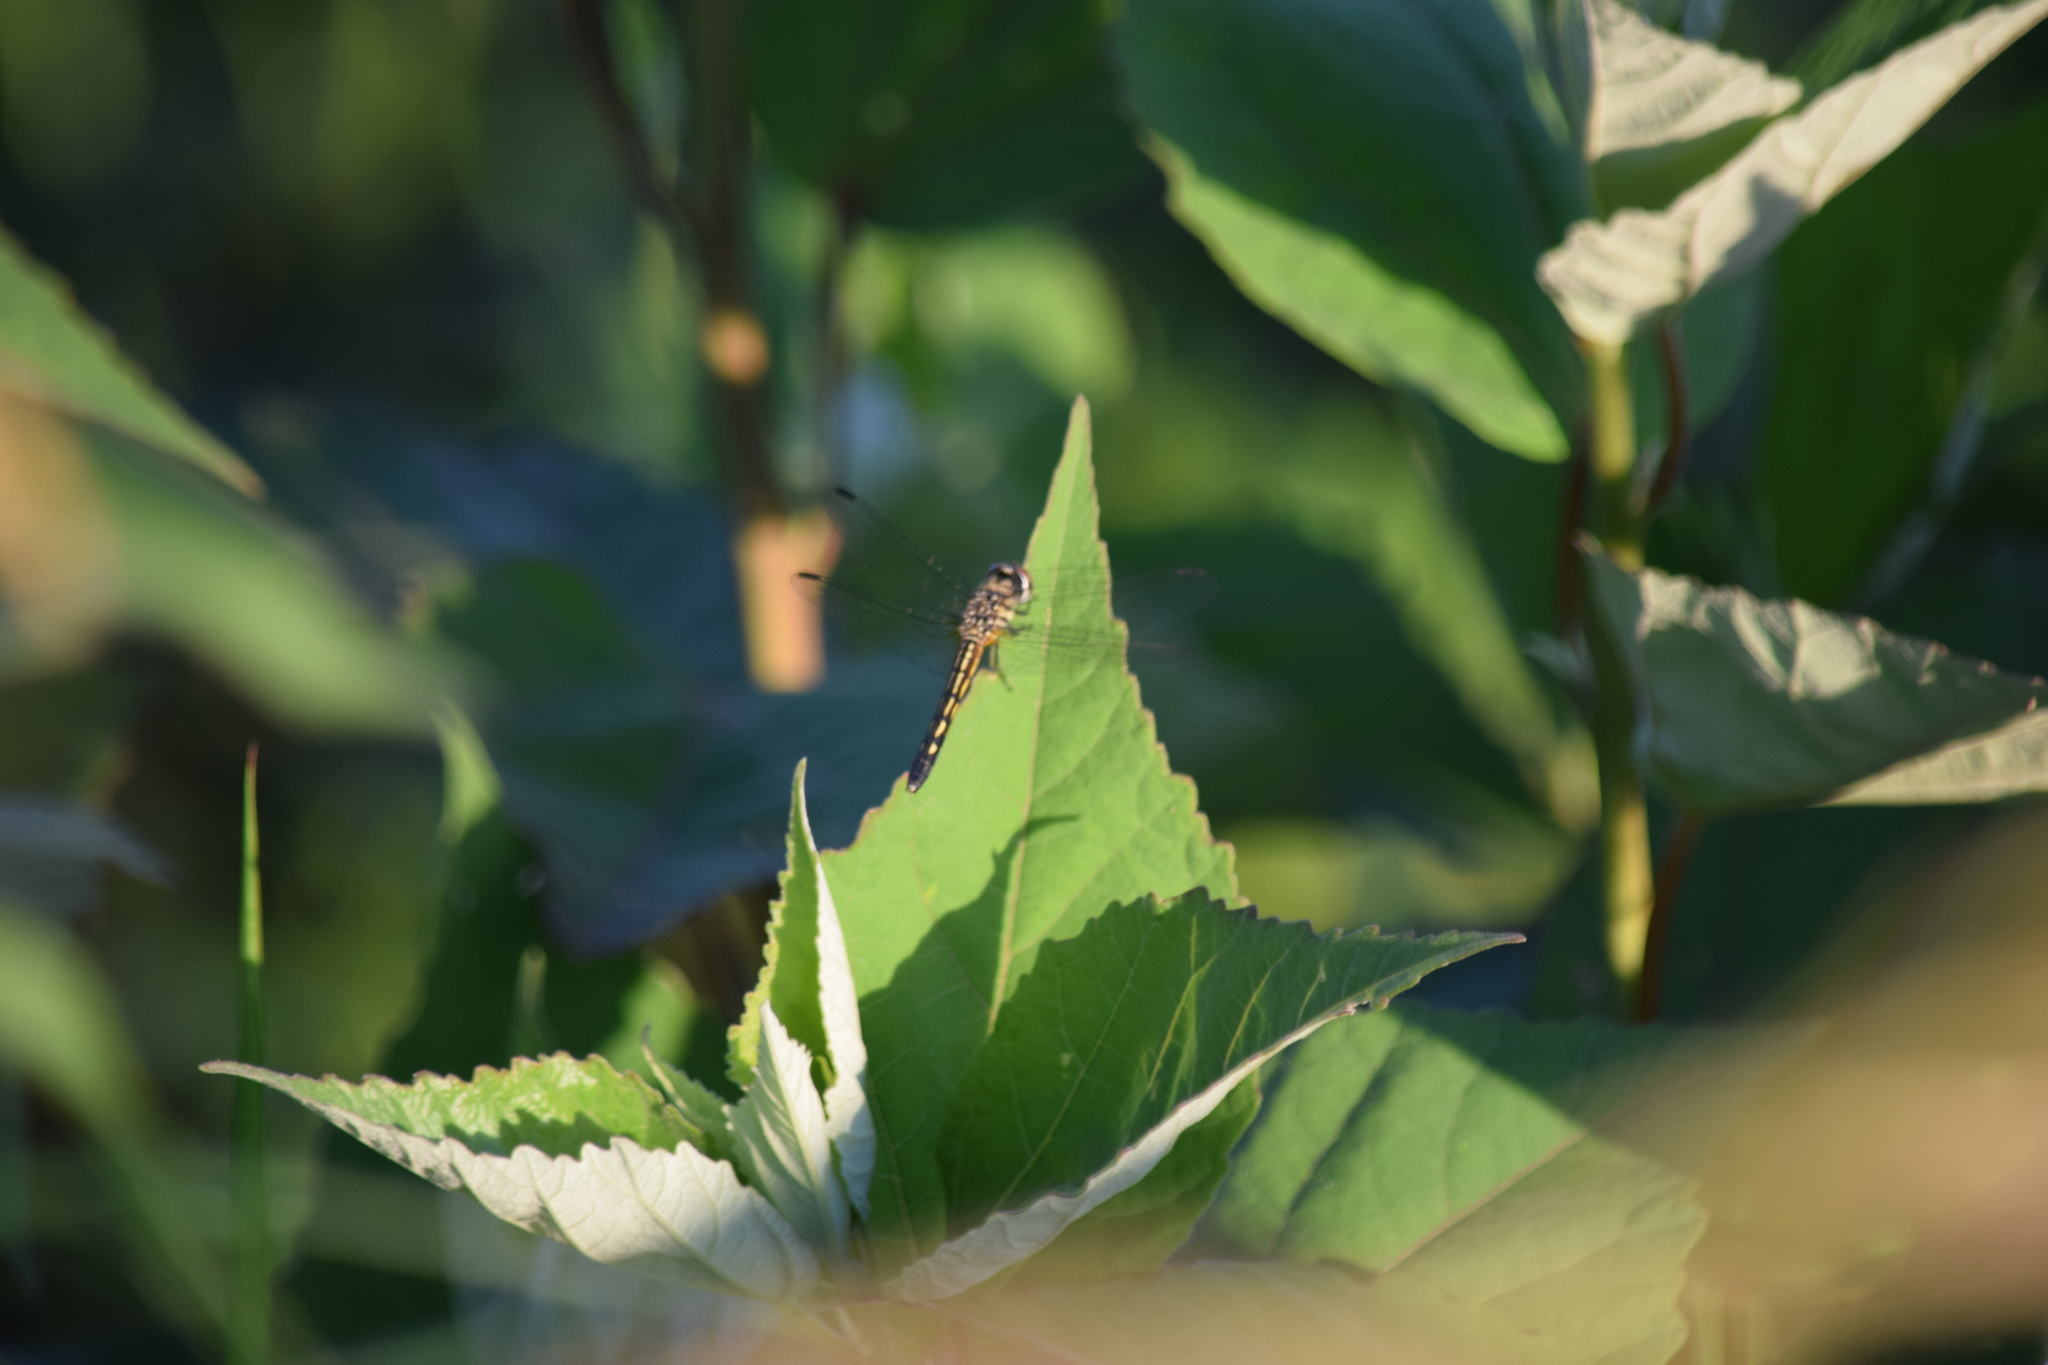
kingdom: Animalia
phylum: Arthropoda
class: Insecta
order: Odonata
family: Libellulidae
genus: Pachydiplax
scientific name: Pachydiplax longipennis
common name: Blue dasher
